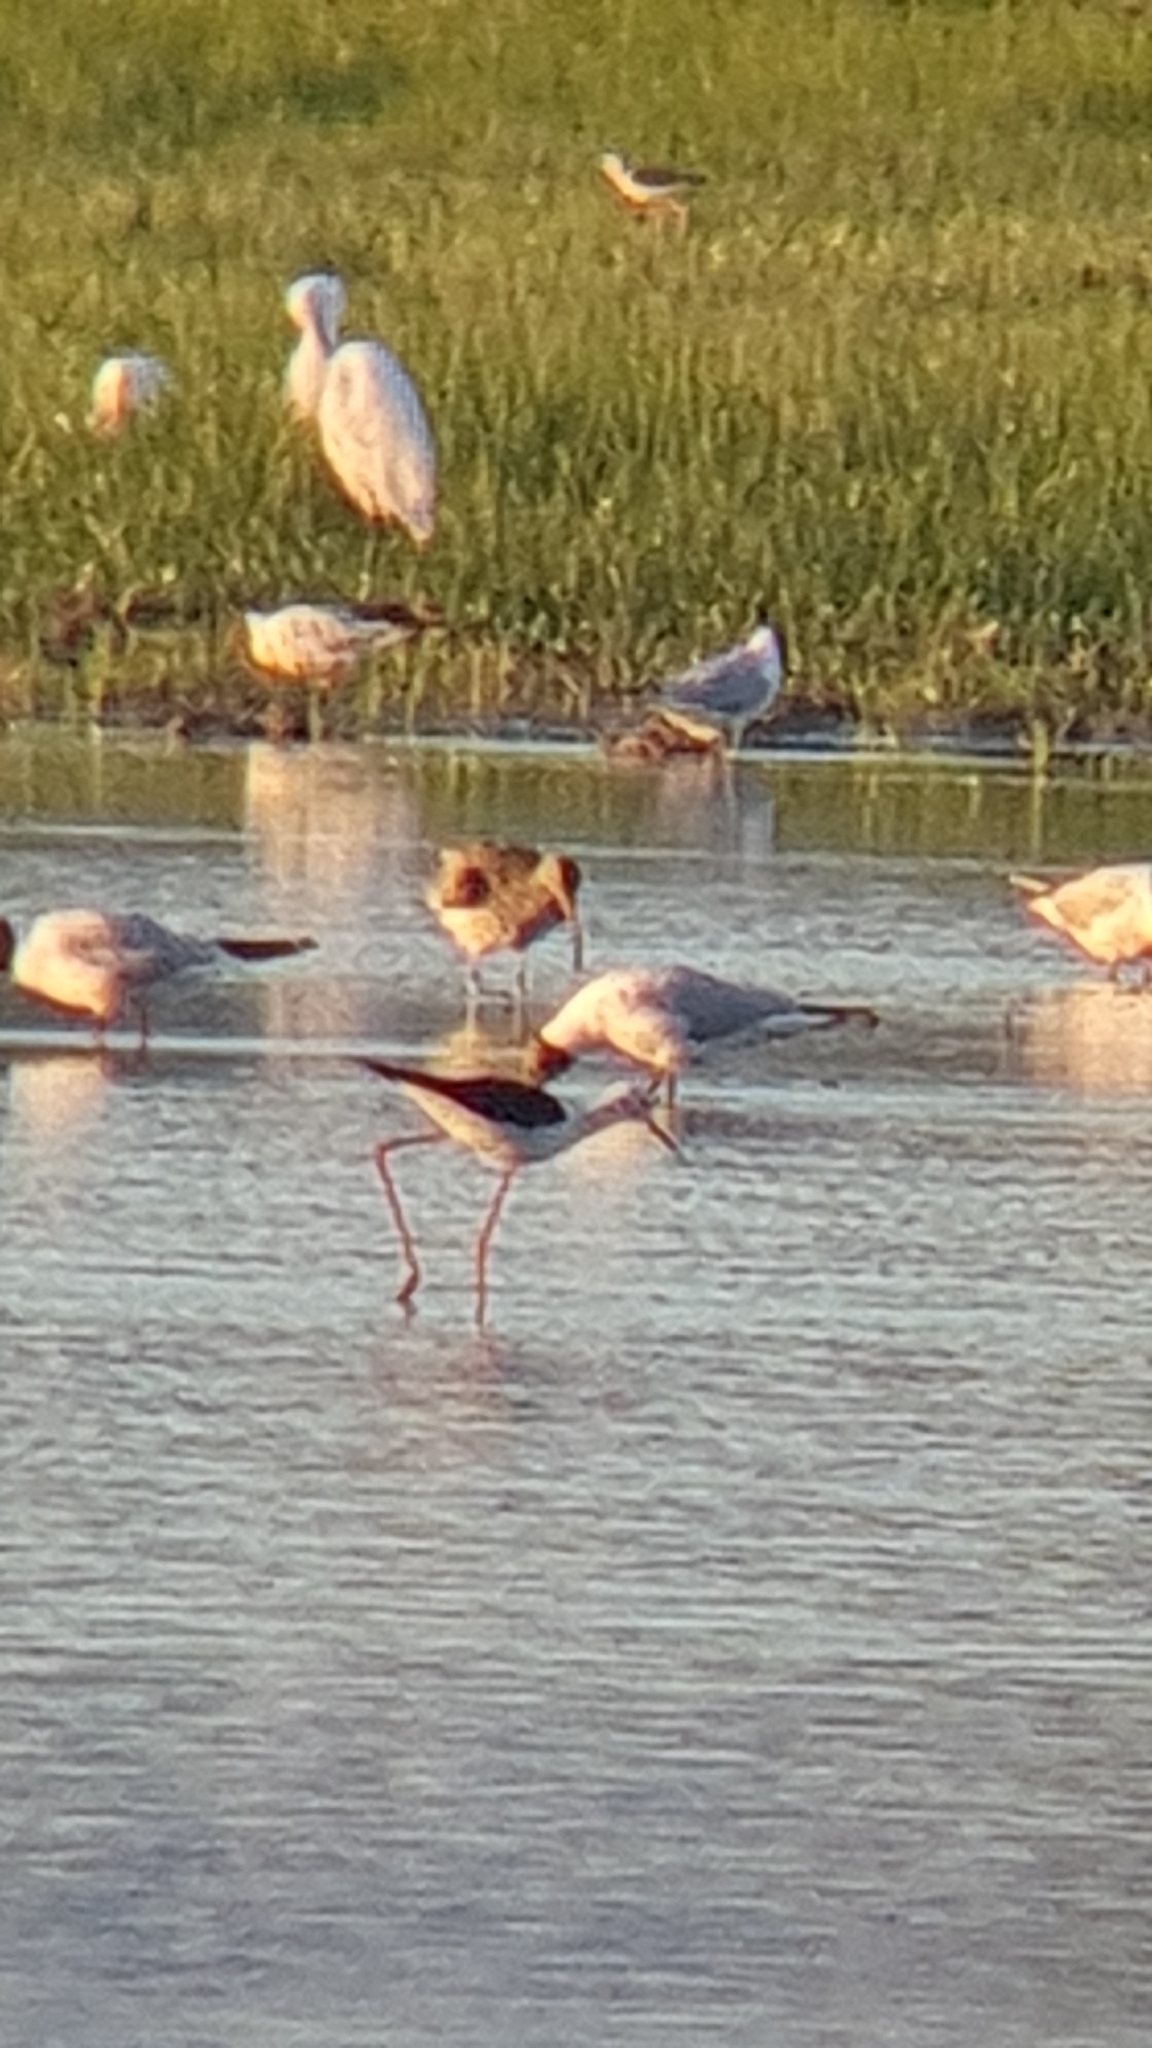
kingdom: Animalia
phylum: Chordata
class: Aves
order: Charadriiformes
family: Scolopacidae
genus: Numenius
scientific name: Numenius phaeopus
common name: Whimbrel
